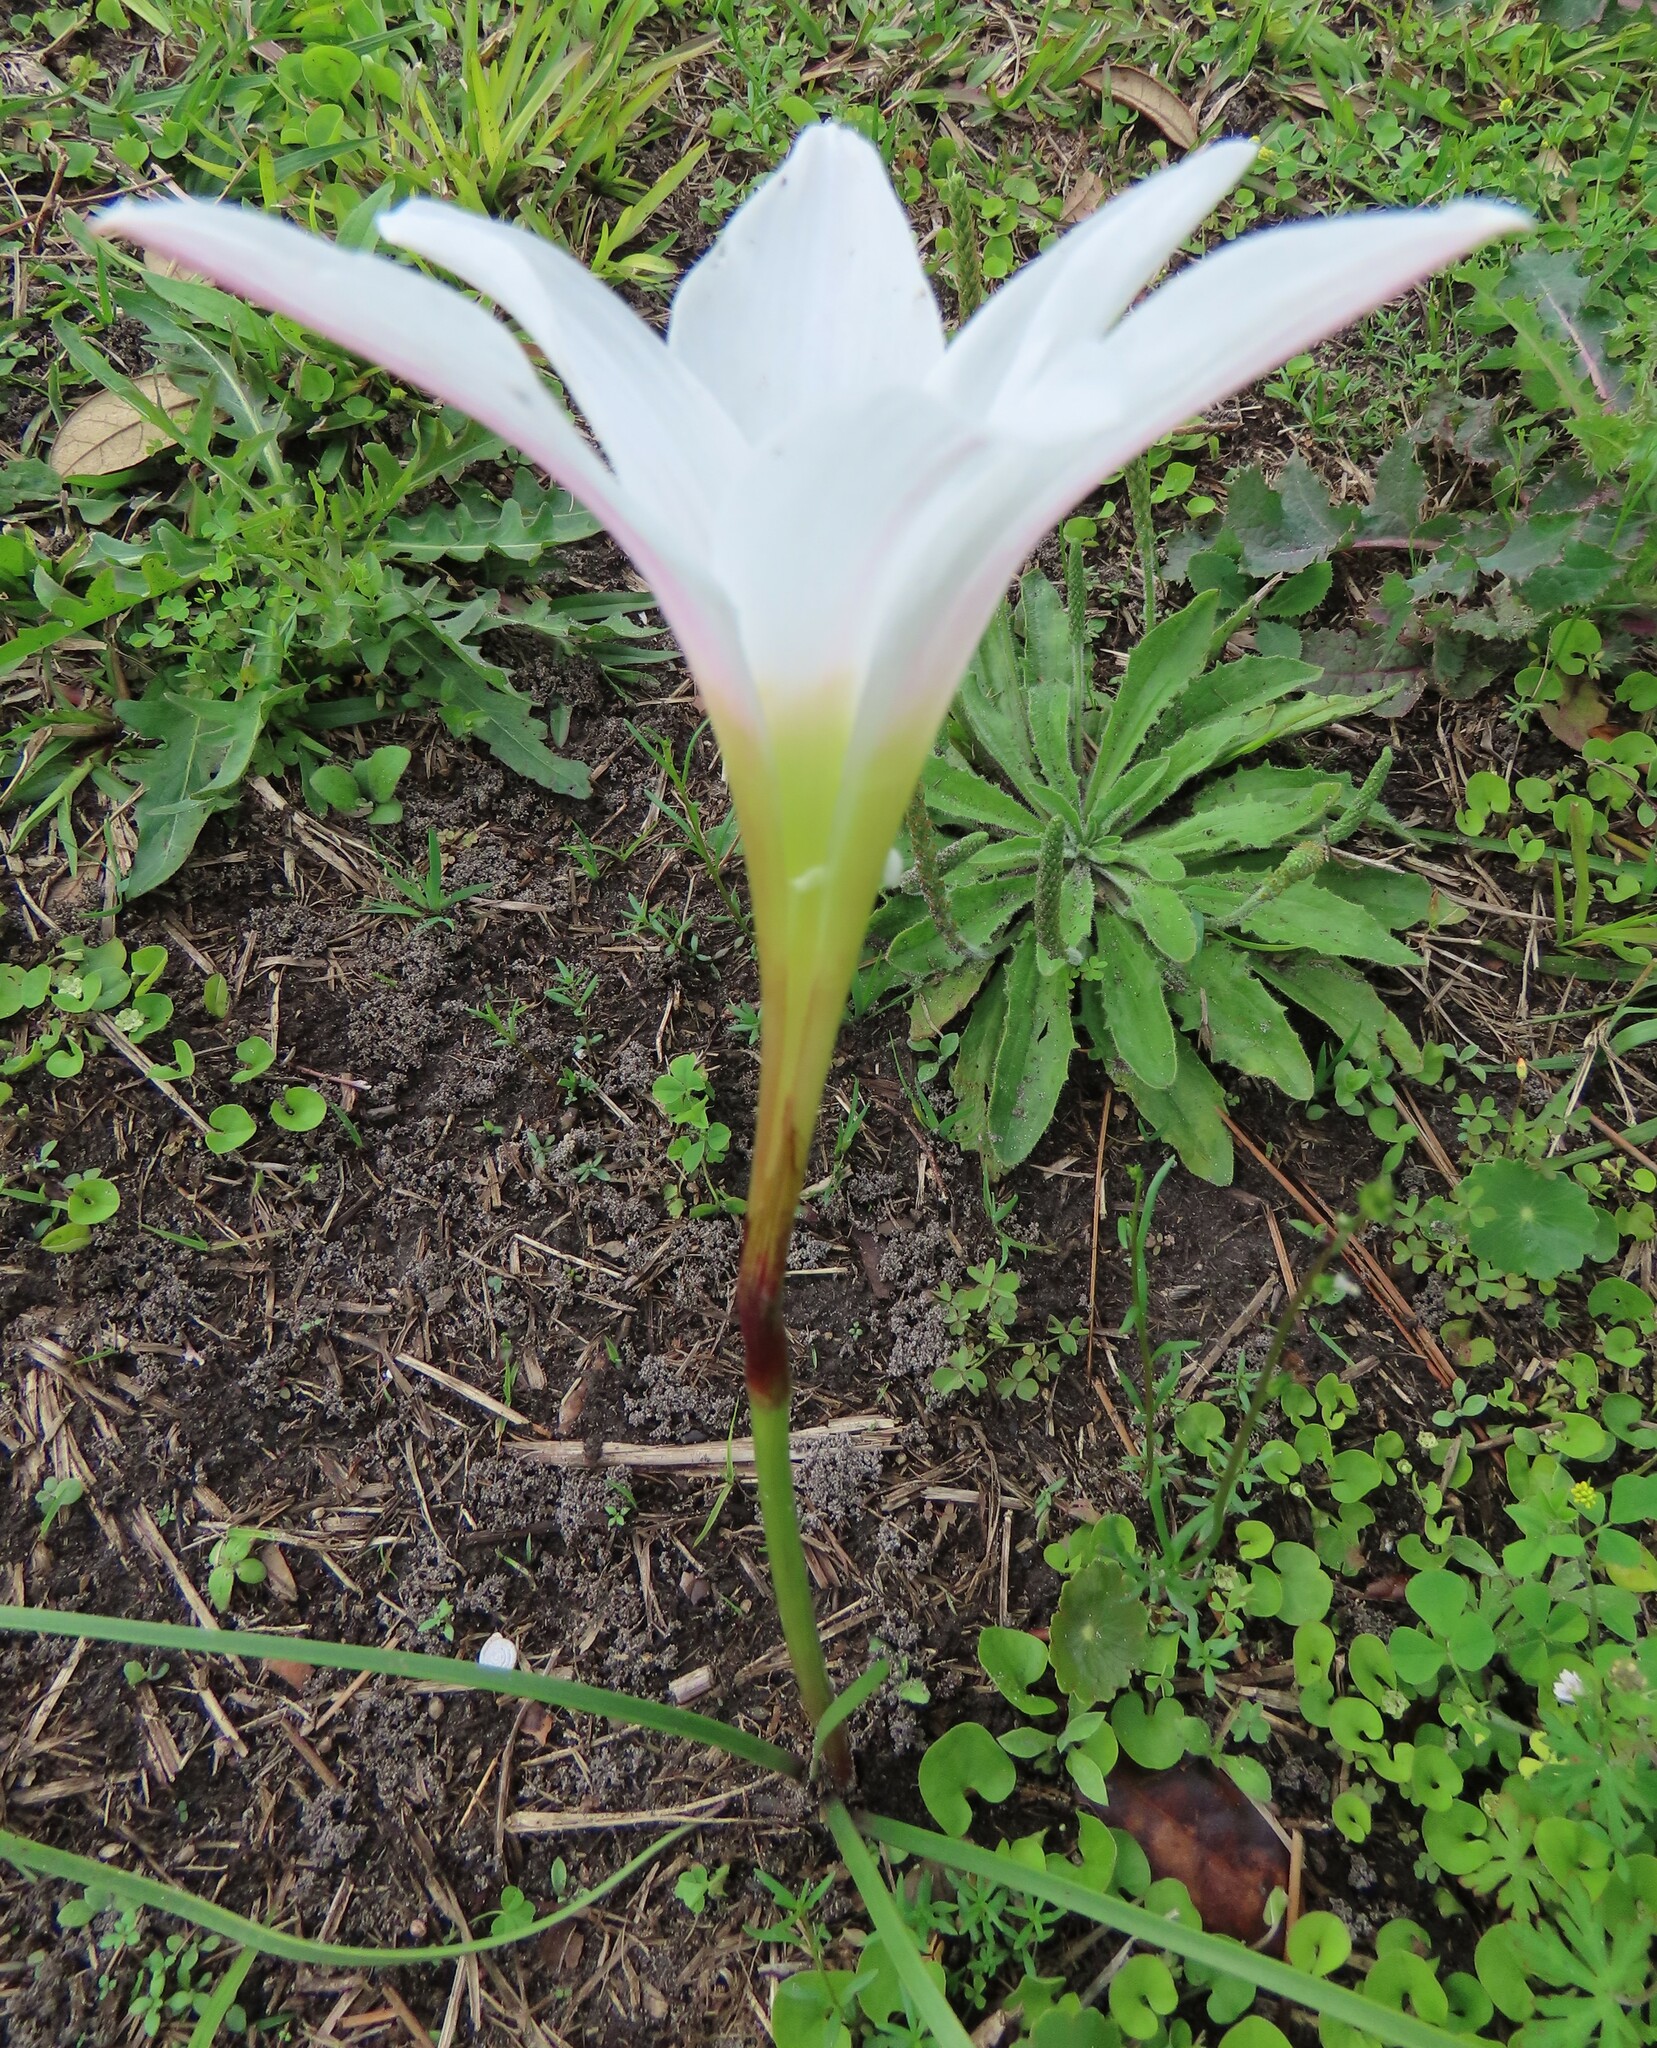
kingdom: Plantae
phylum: Tracheophyta
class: Liliopsida
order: Asparagales
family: Amaryllidaceae
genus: Zephyranthes
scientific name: Zephyranthes atamasco
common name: Atamasco lily
